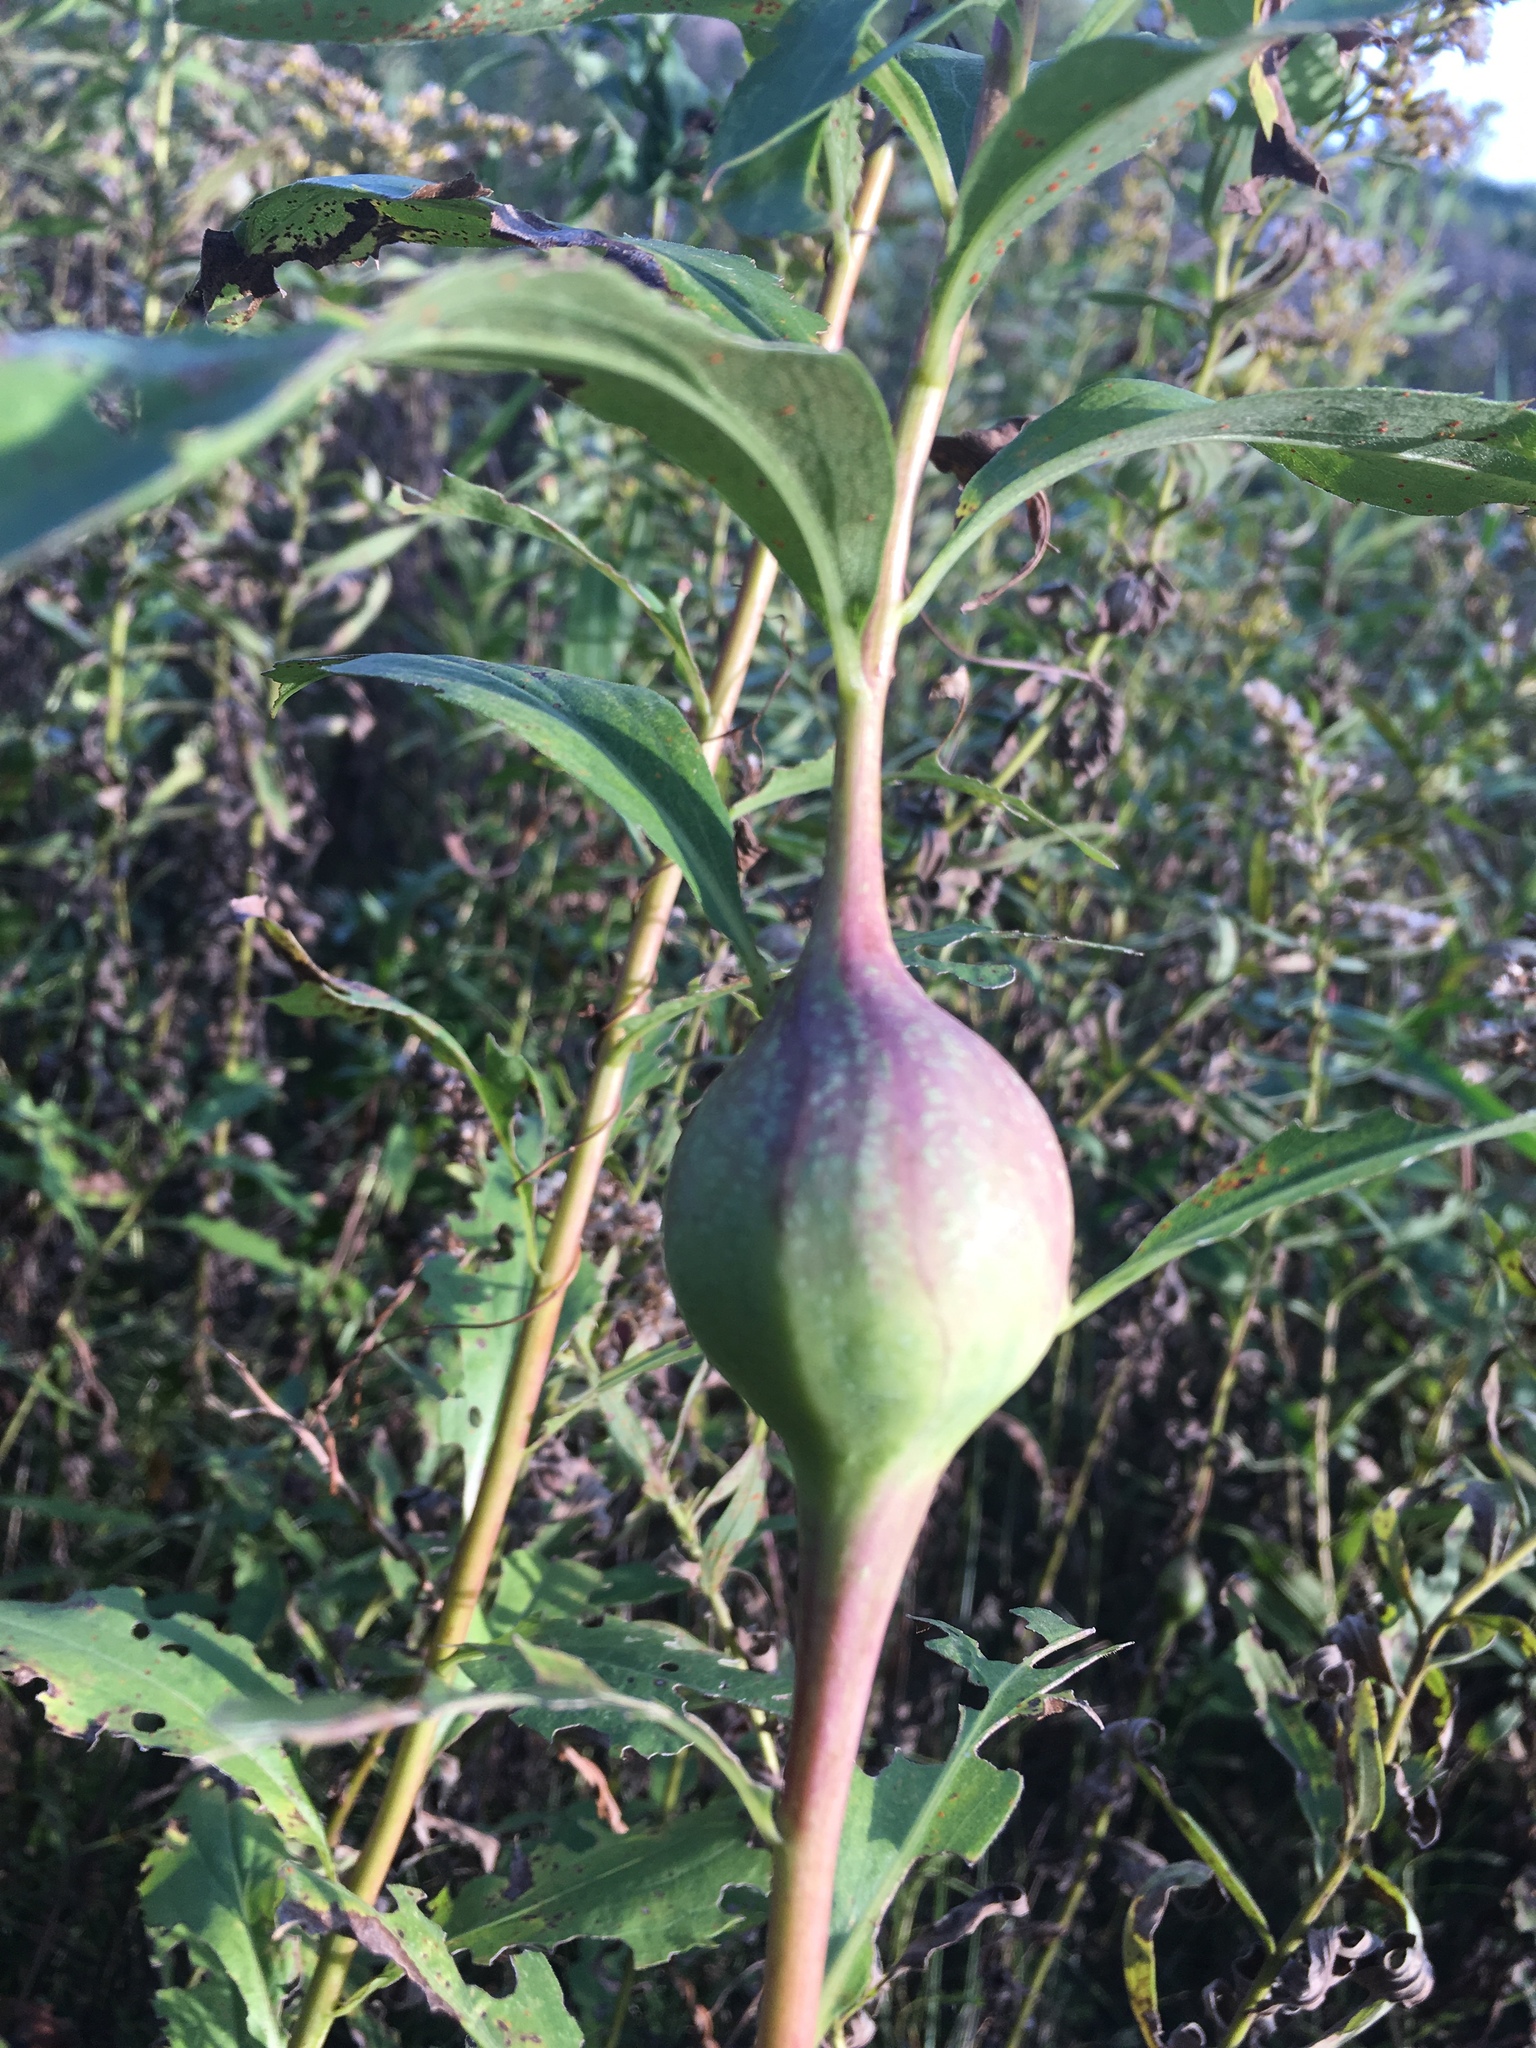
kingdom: Animalia
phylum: Arthropoda
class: Insecta
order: Diptera
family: Tephritidae
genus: Eurosta
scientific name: Eurosta solidaginis
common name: Goldenrod gall fly
